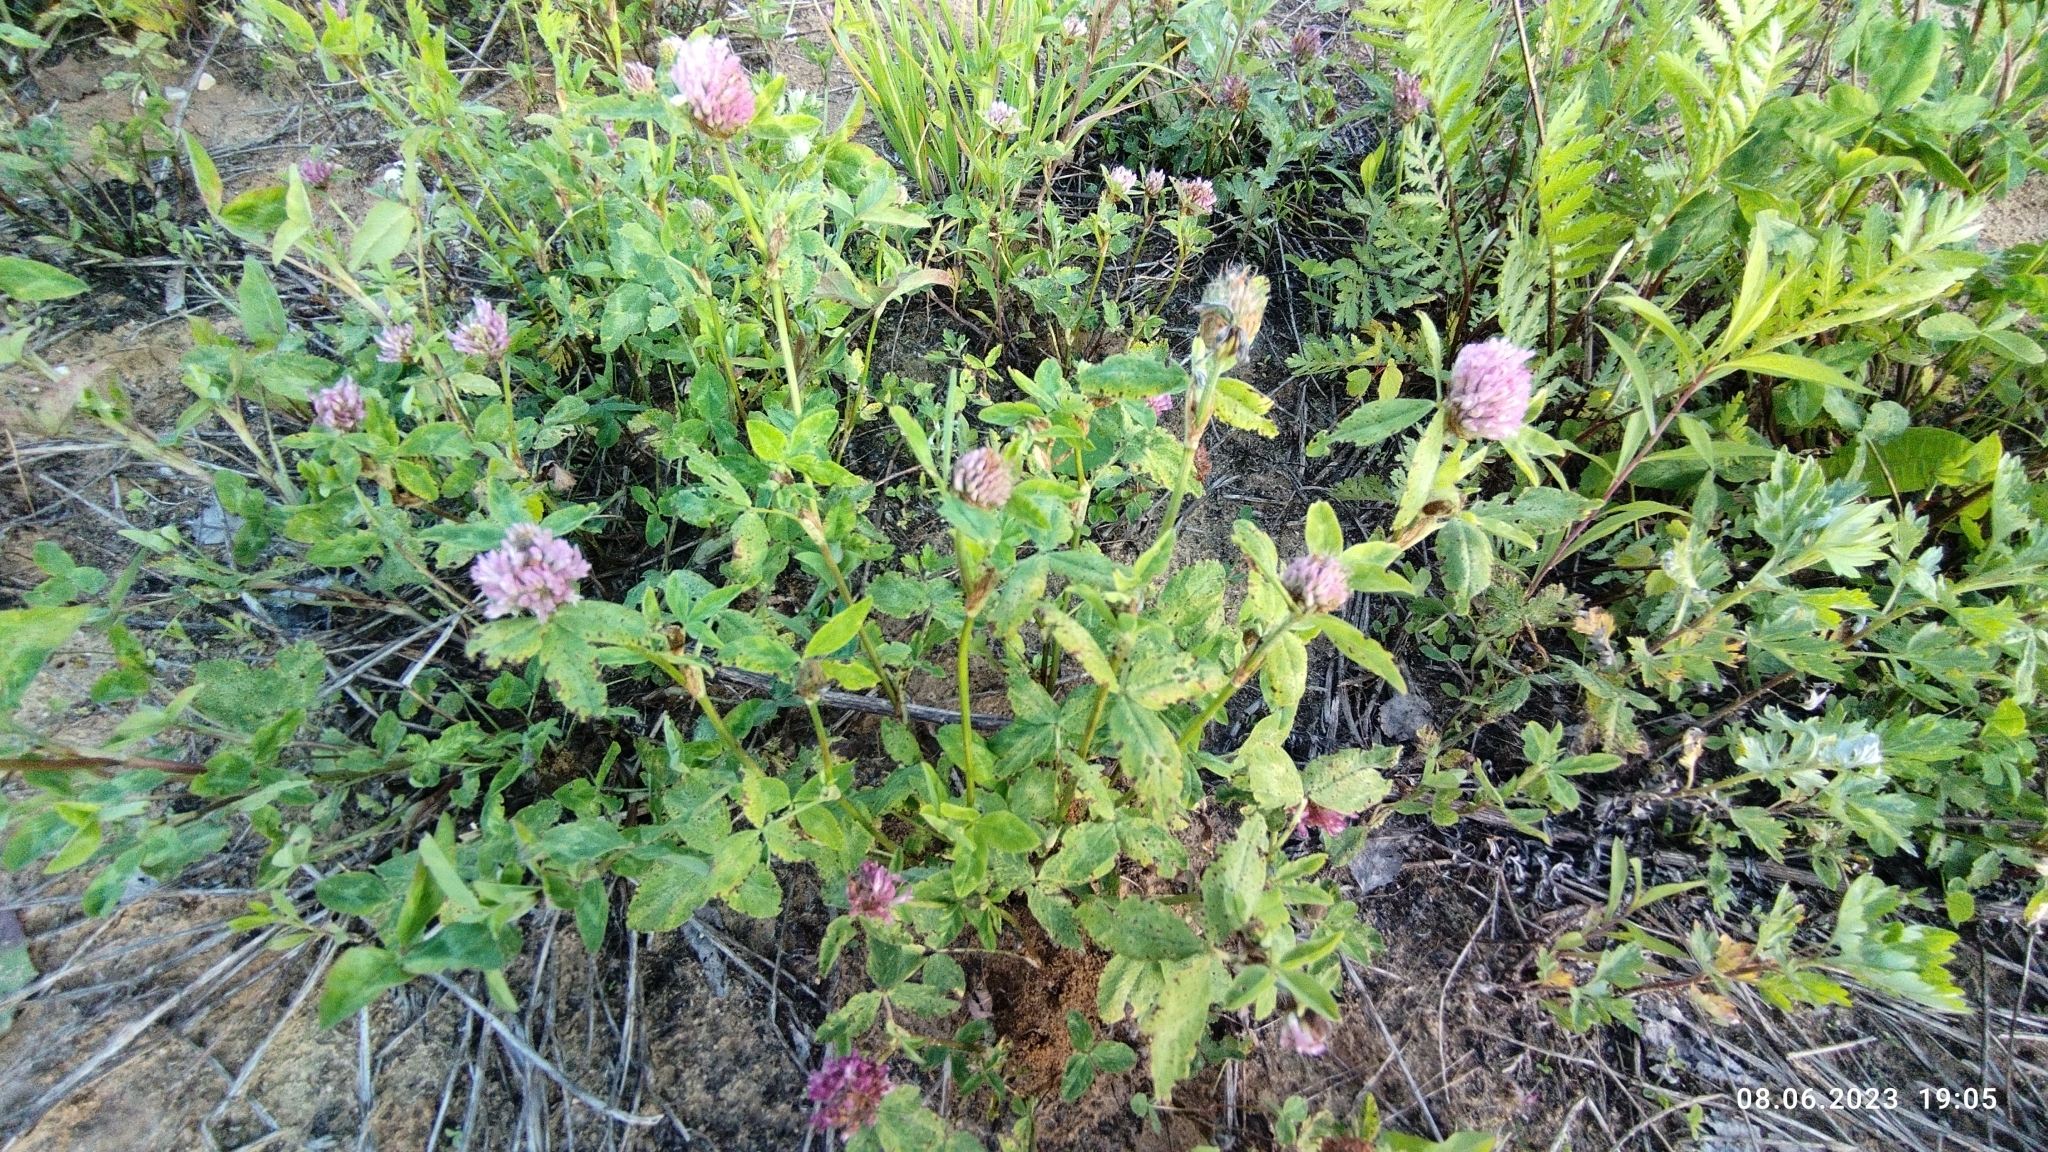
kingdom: Plantae
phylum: Tracheophyta
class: Magnoliopsida
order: Fabales
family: Fabaceae
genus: Trifolium
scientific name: Trifolium pratense
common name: Red clover
